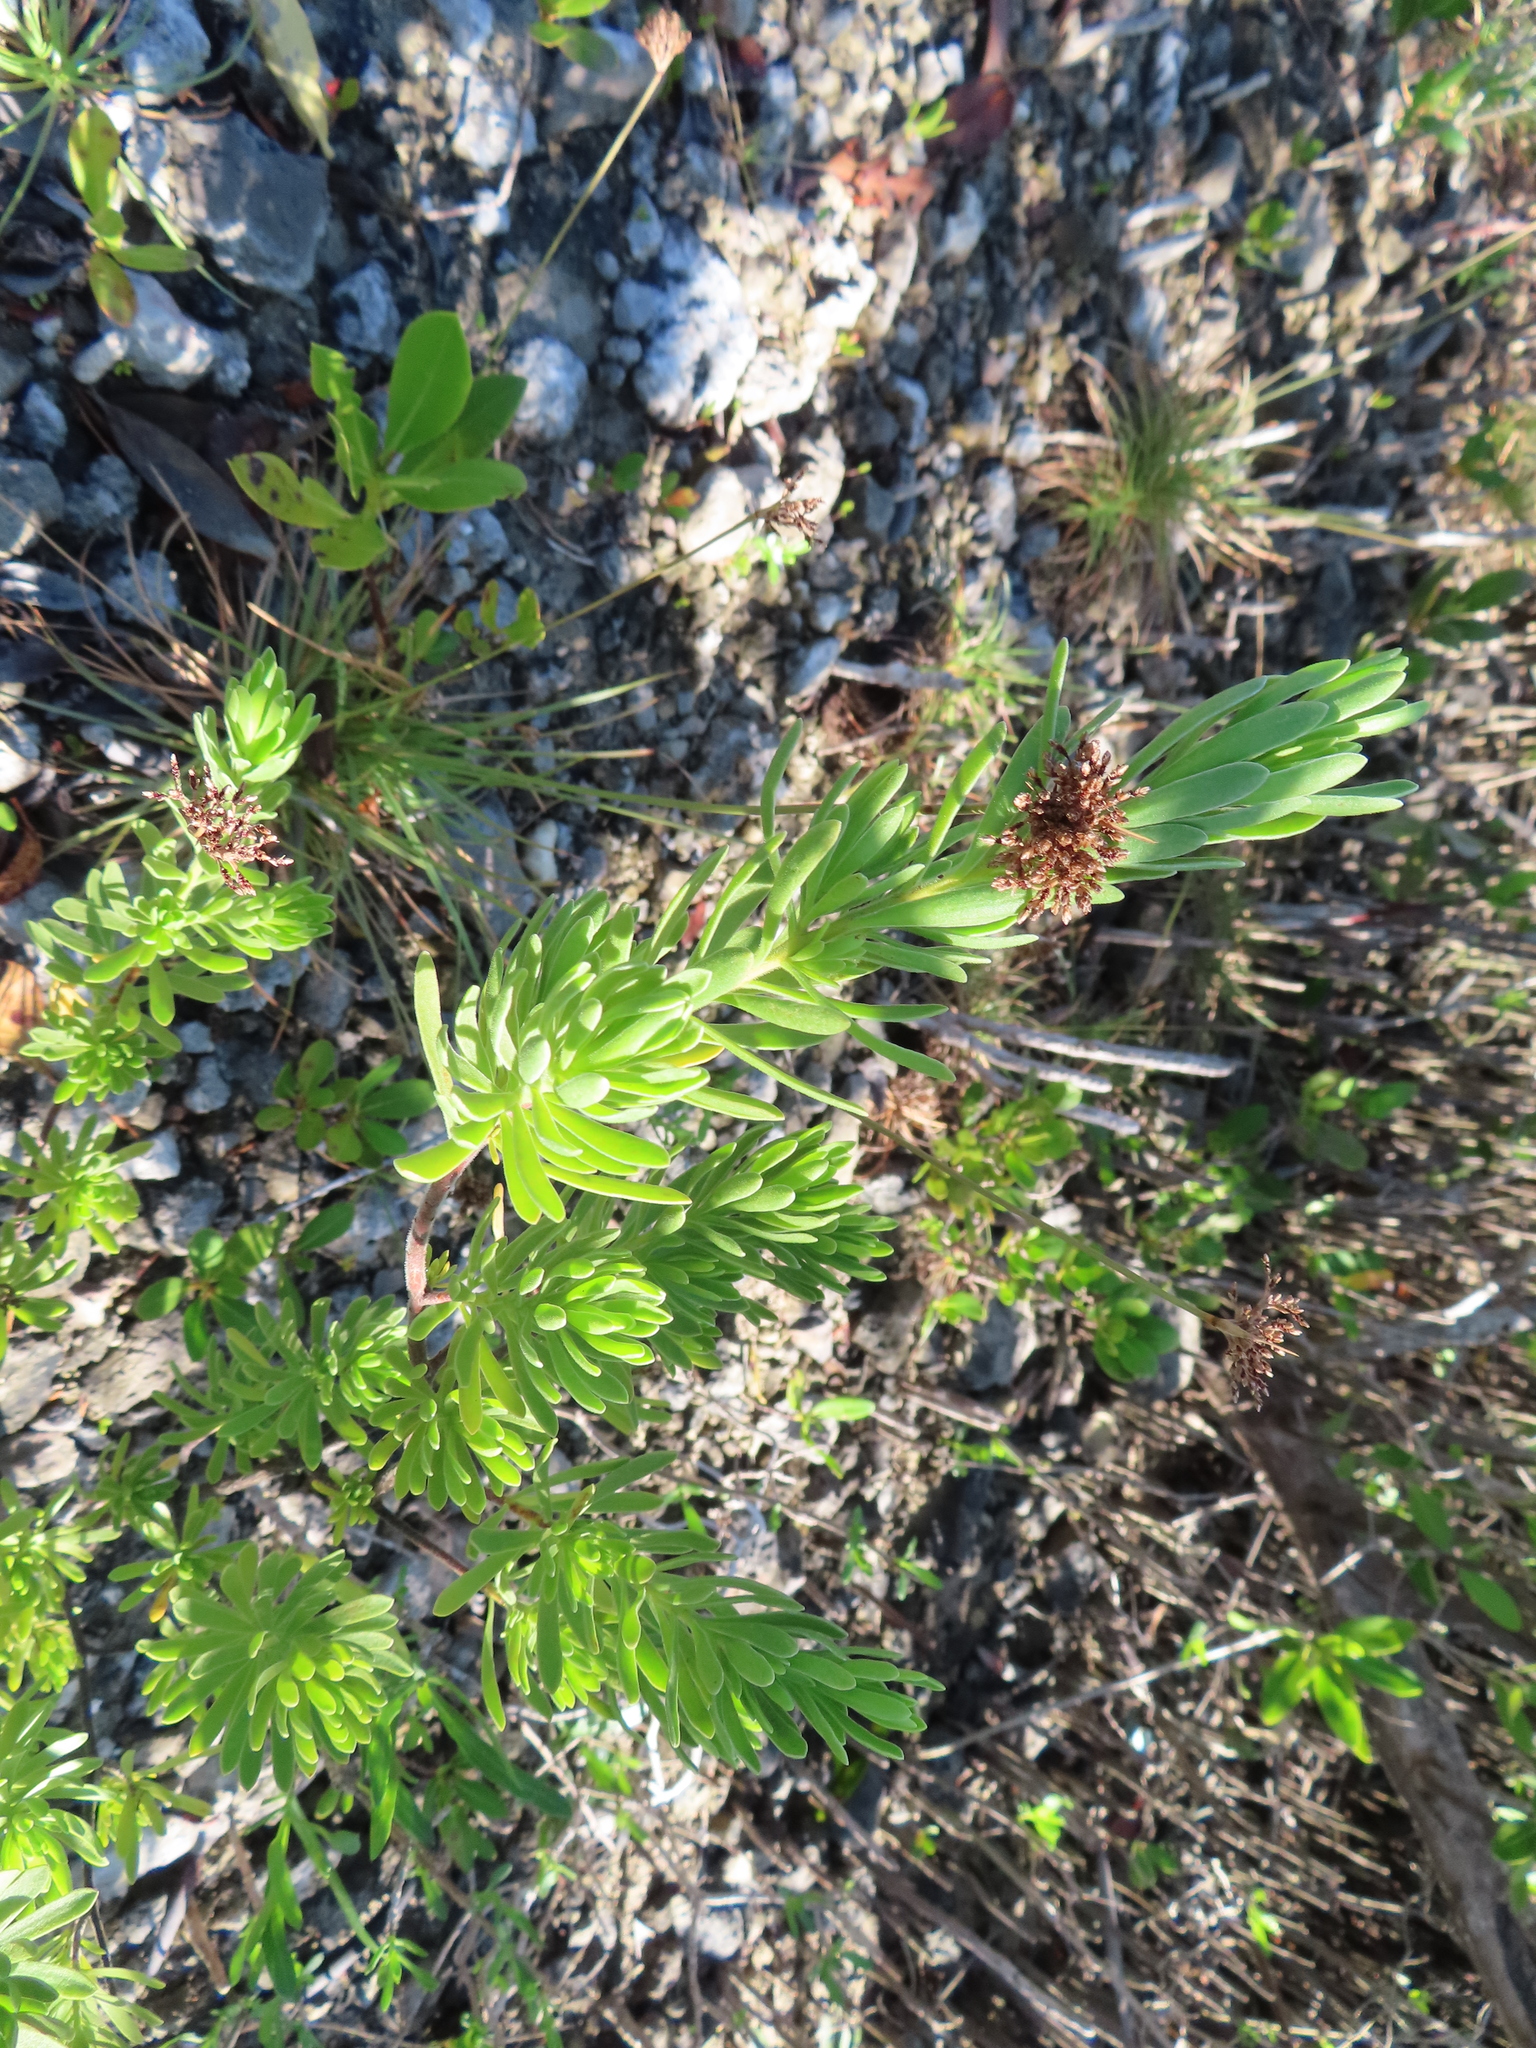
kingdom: Plantae
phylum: Tracheophyta
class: Magnoliopsida
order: Fabales
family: Surianaceae
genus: Suriana
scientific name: Suriana maritima
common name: Bay-cedar
